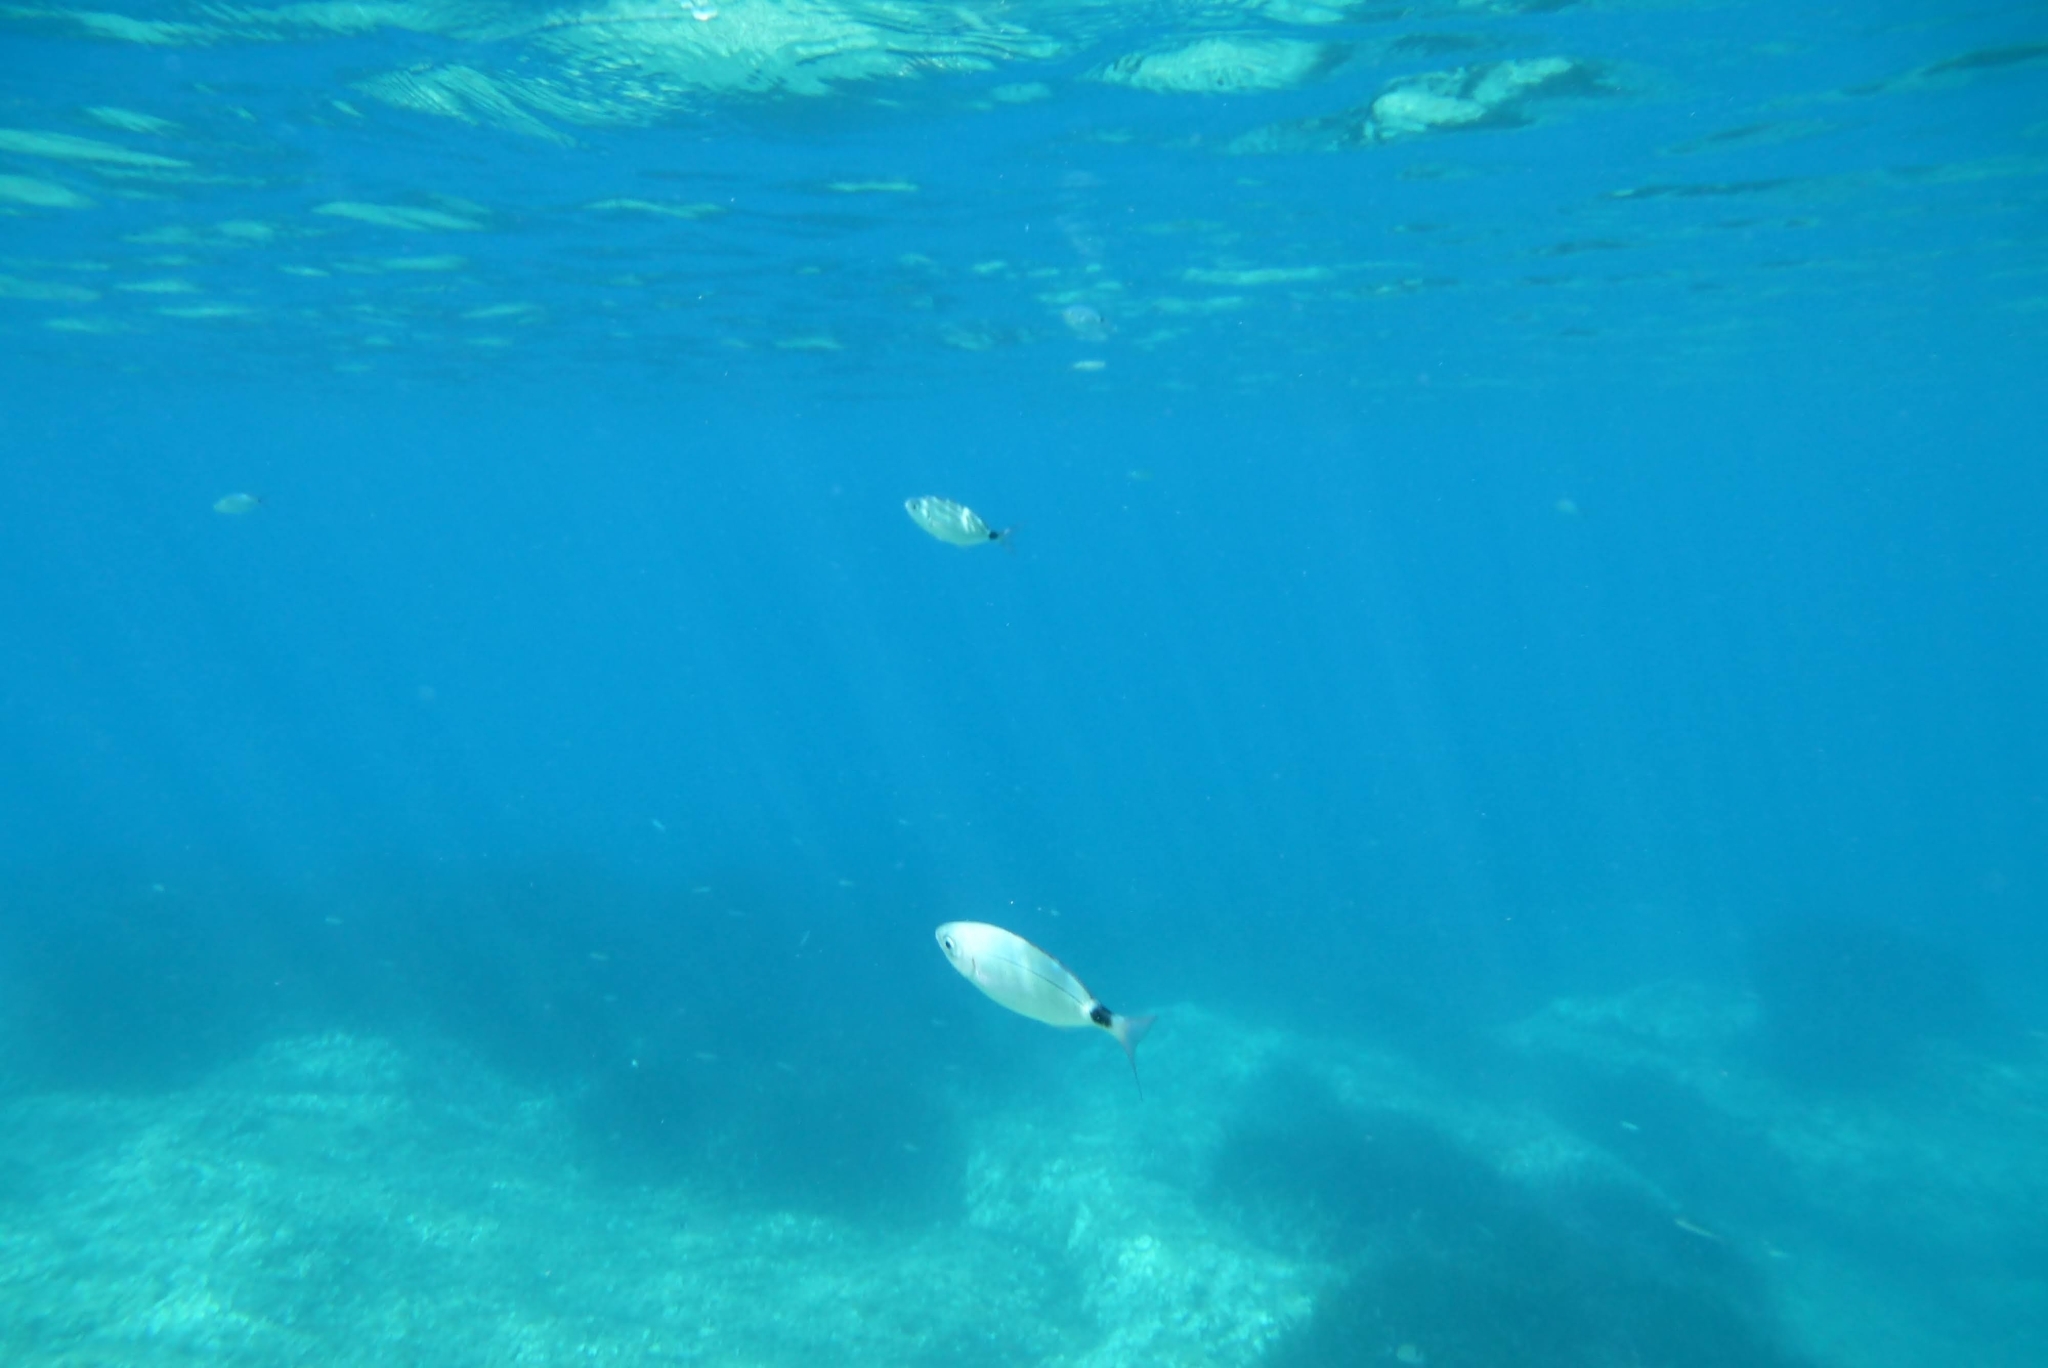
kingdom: Animalia
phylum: Chordata
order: Perciformes
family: Sparidae
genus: Oblada
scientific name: Oblada melanura
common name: Saddled seabream
